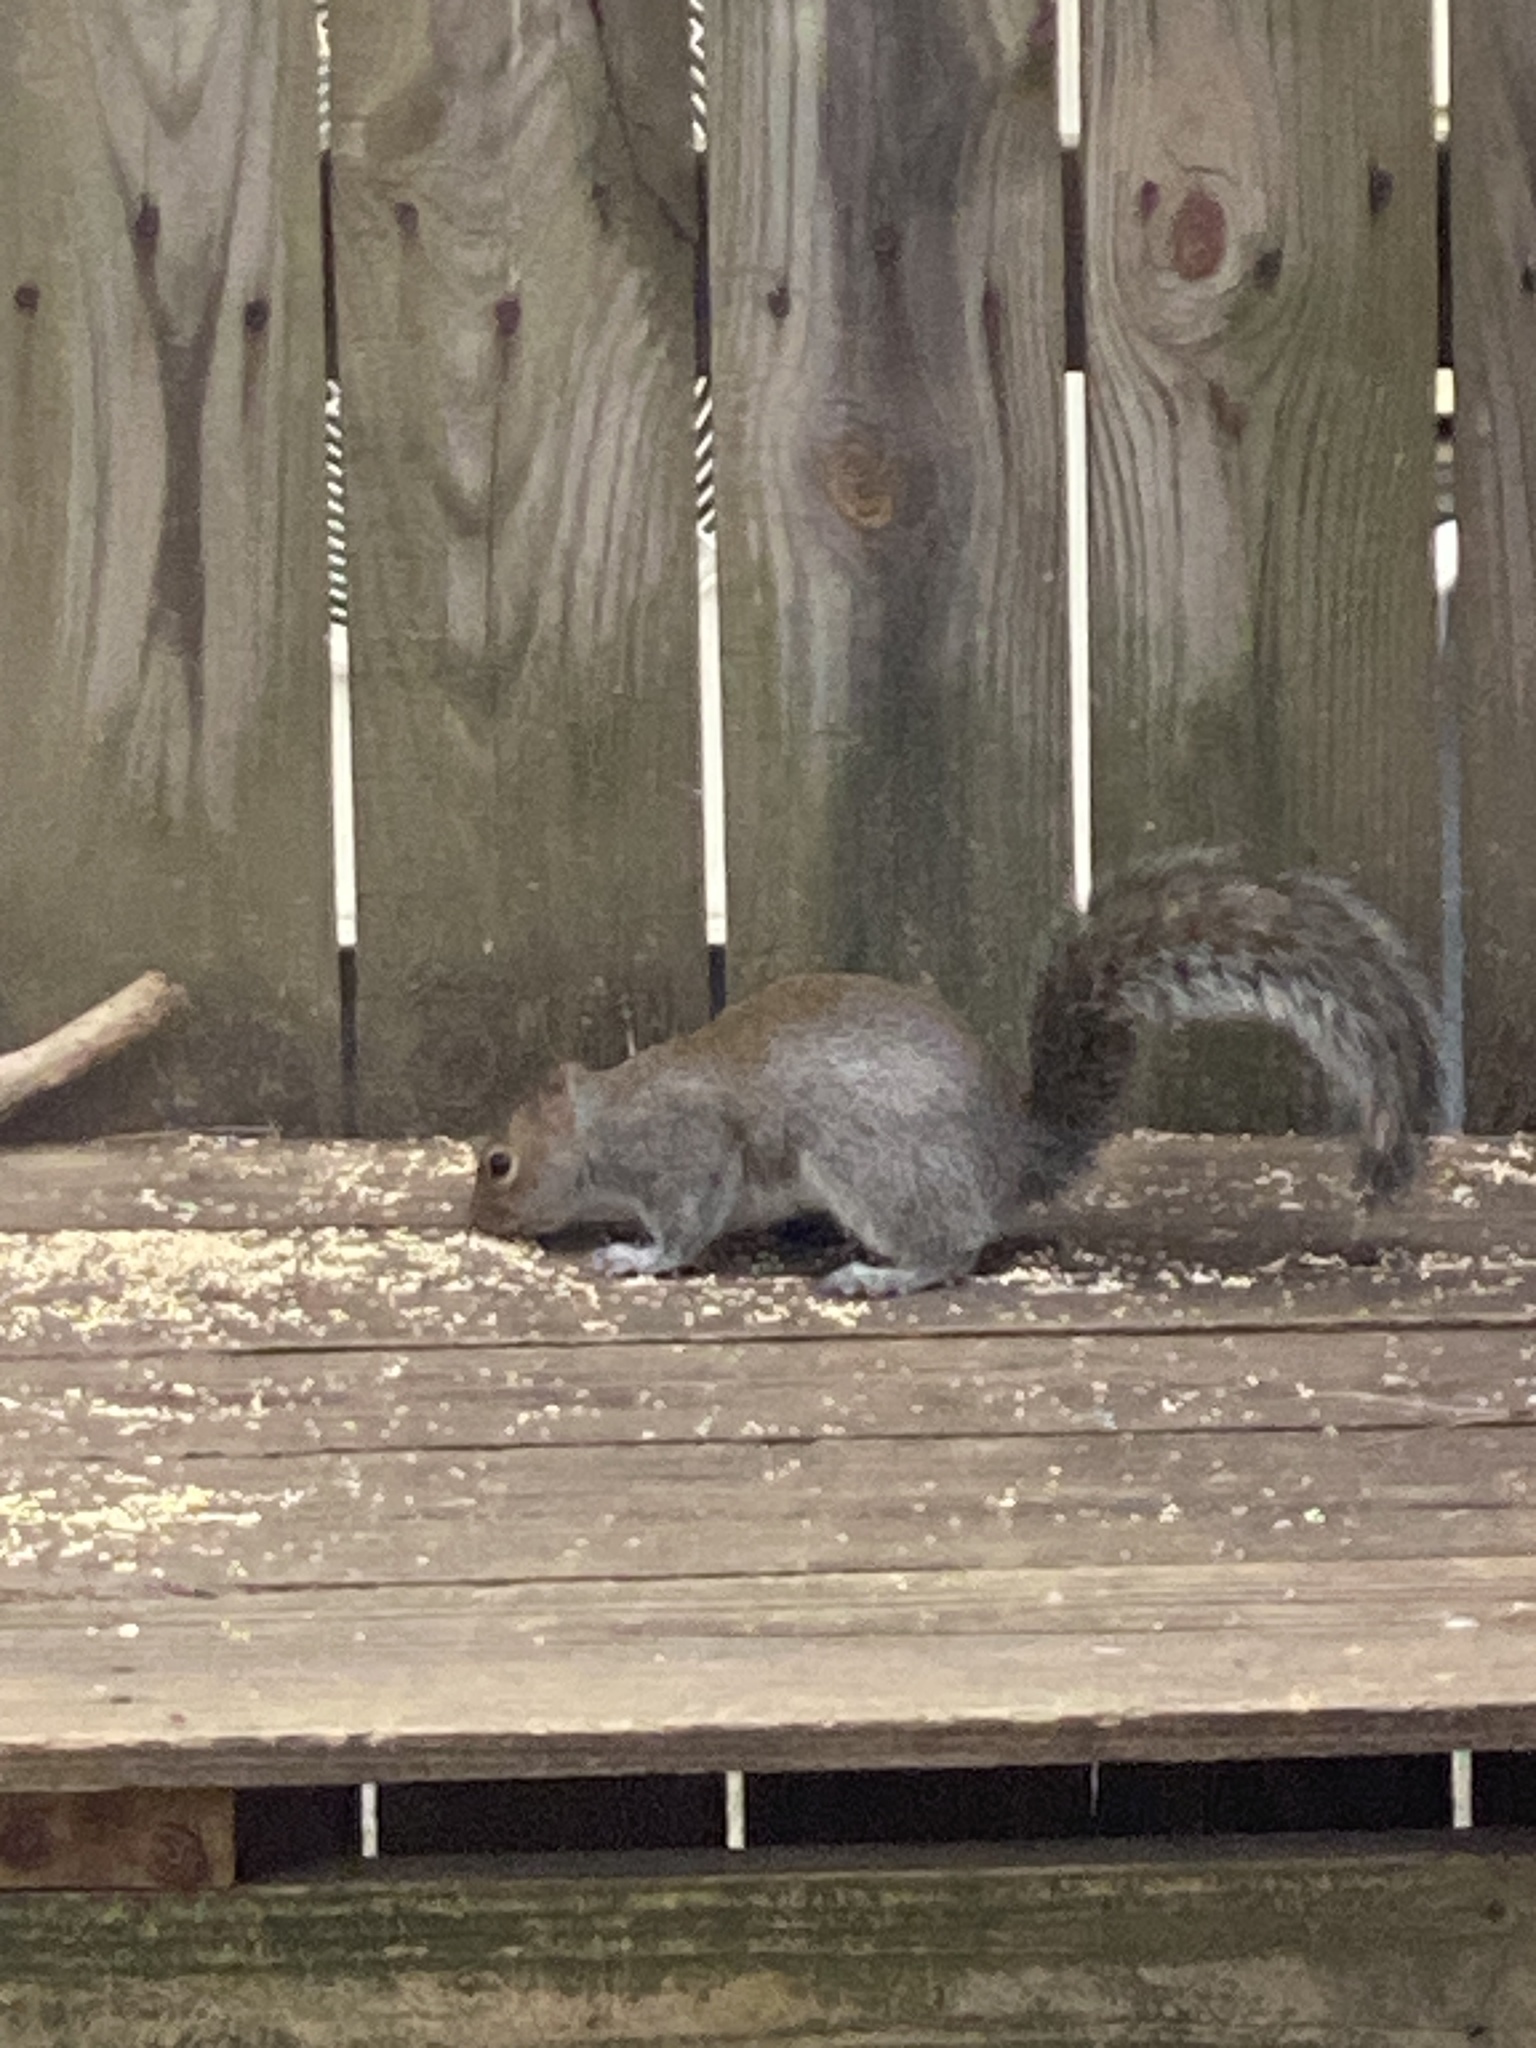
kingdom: Animalia
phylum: Chordata
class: Mammalia
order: Rodentia
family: Sciuridae
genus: Sciurus
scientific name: Sciurus carolinensis
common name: Eastern gray squirrel
